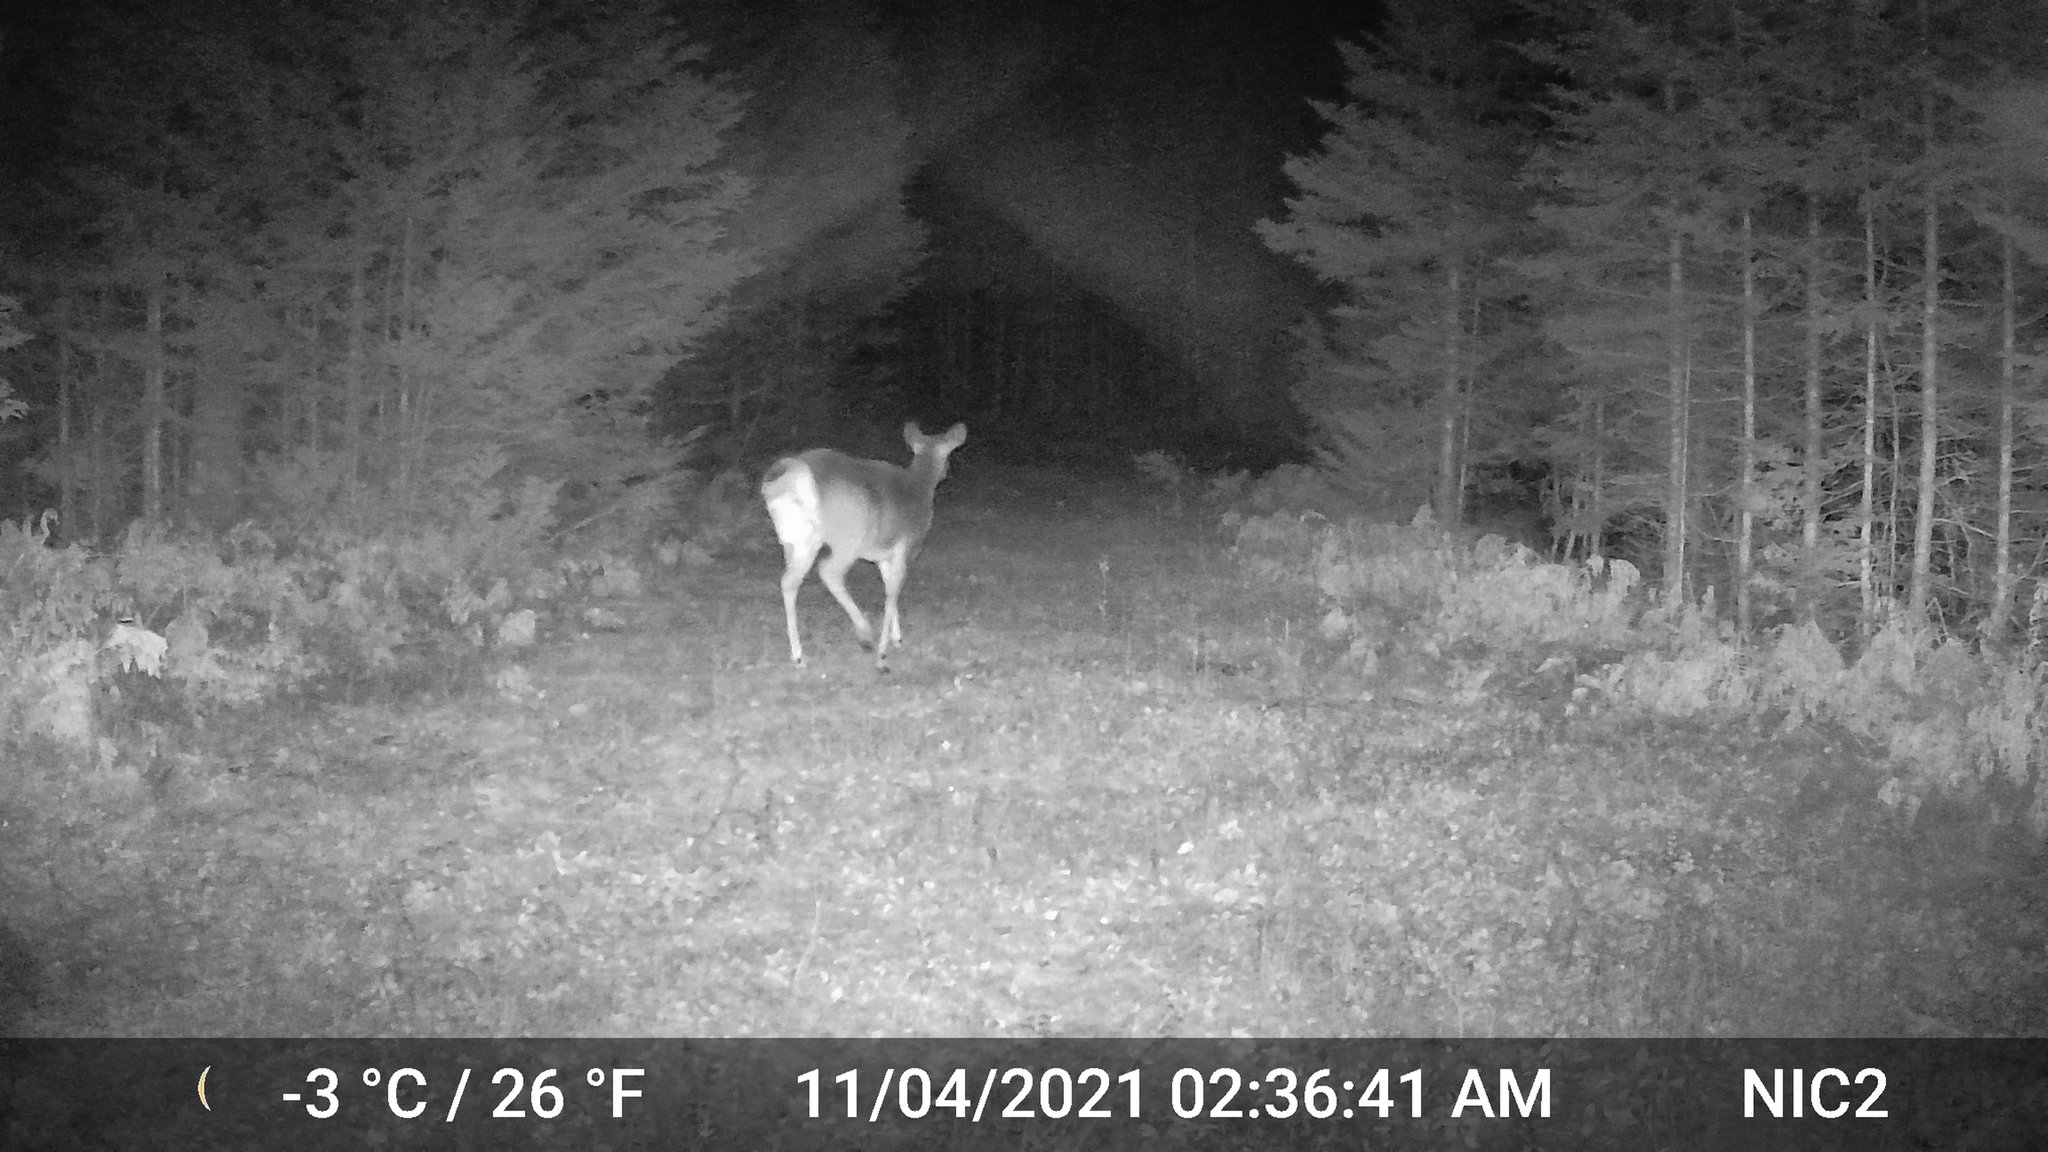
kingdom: Animalia
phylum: Chordata
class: Mammalia
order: Artiodactyla
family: Cervidae
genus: Odocoileus
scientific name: Odocoileus virginianus
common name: White-tailed deer
